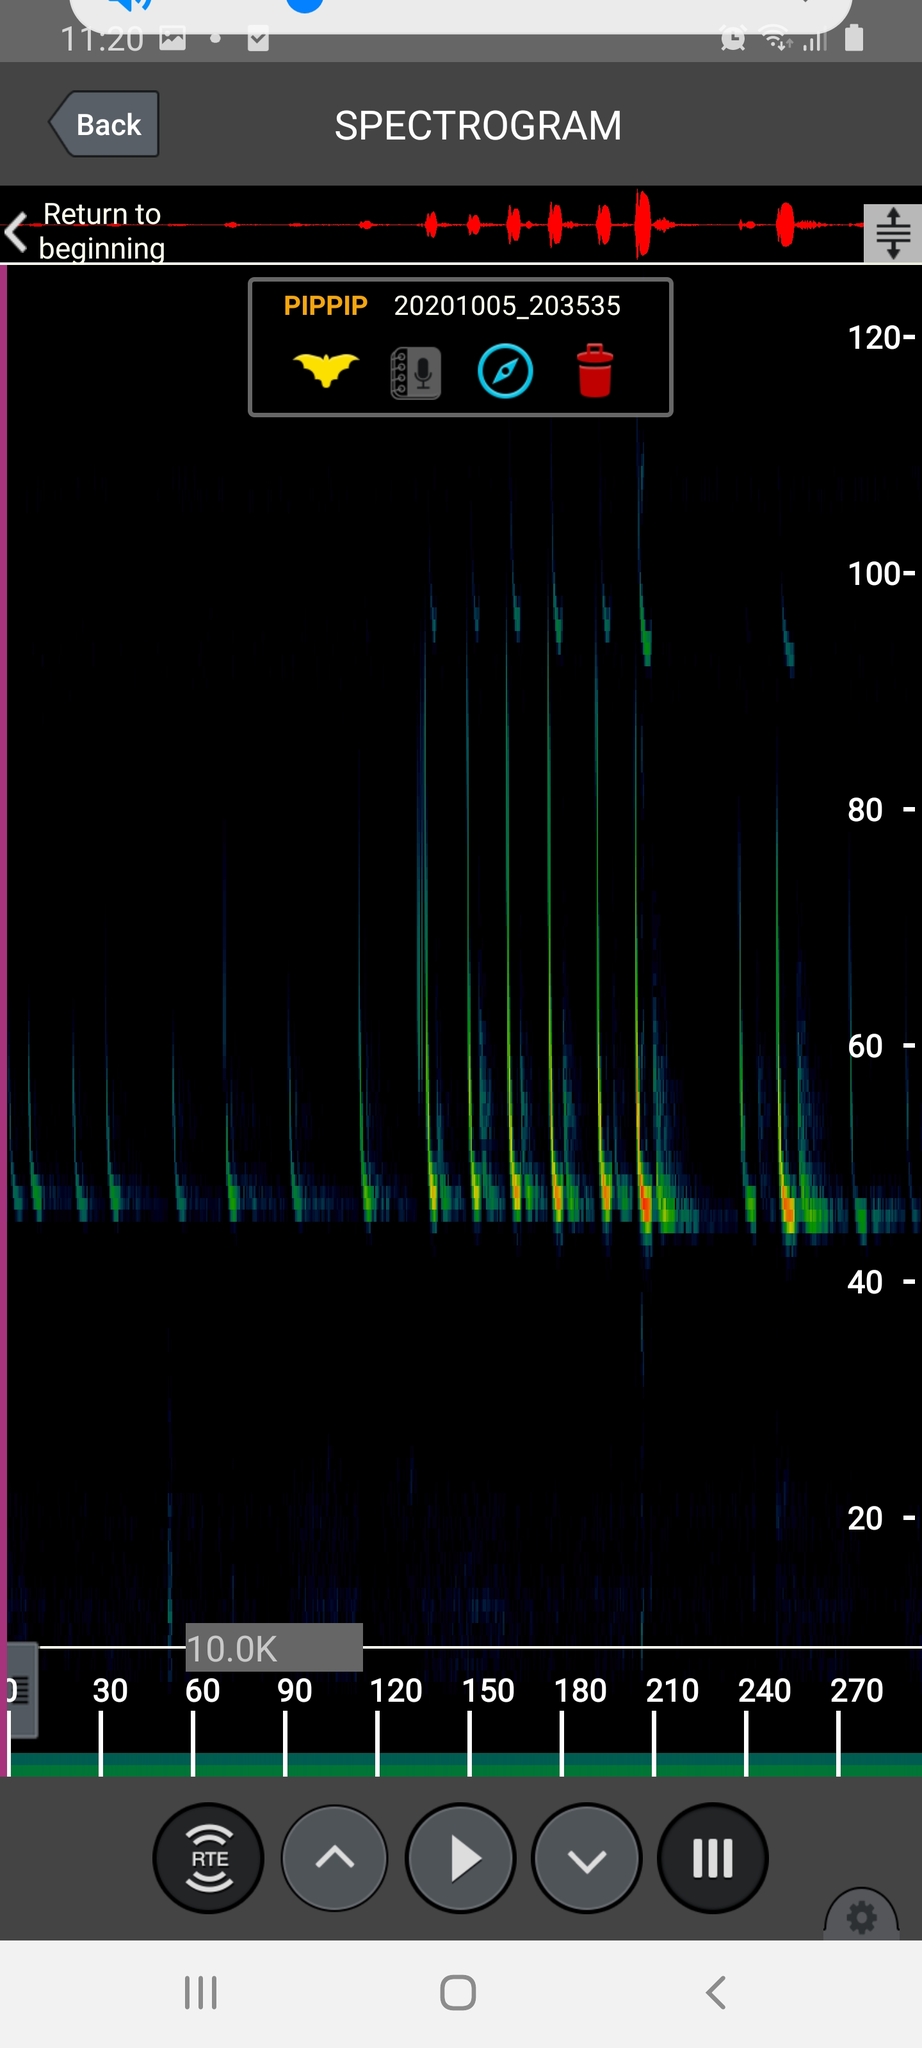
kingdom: Animalia
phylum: Chordata
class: Mammalia
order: Chiroptera
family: Vespertilionidae
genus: Pipistrellus
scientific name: Pipistrellus pipistrellus
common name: Common pipistrelle
